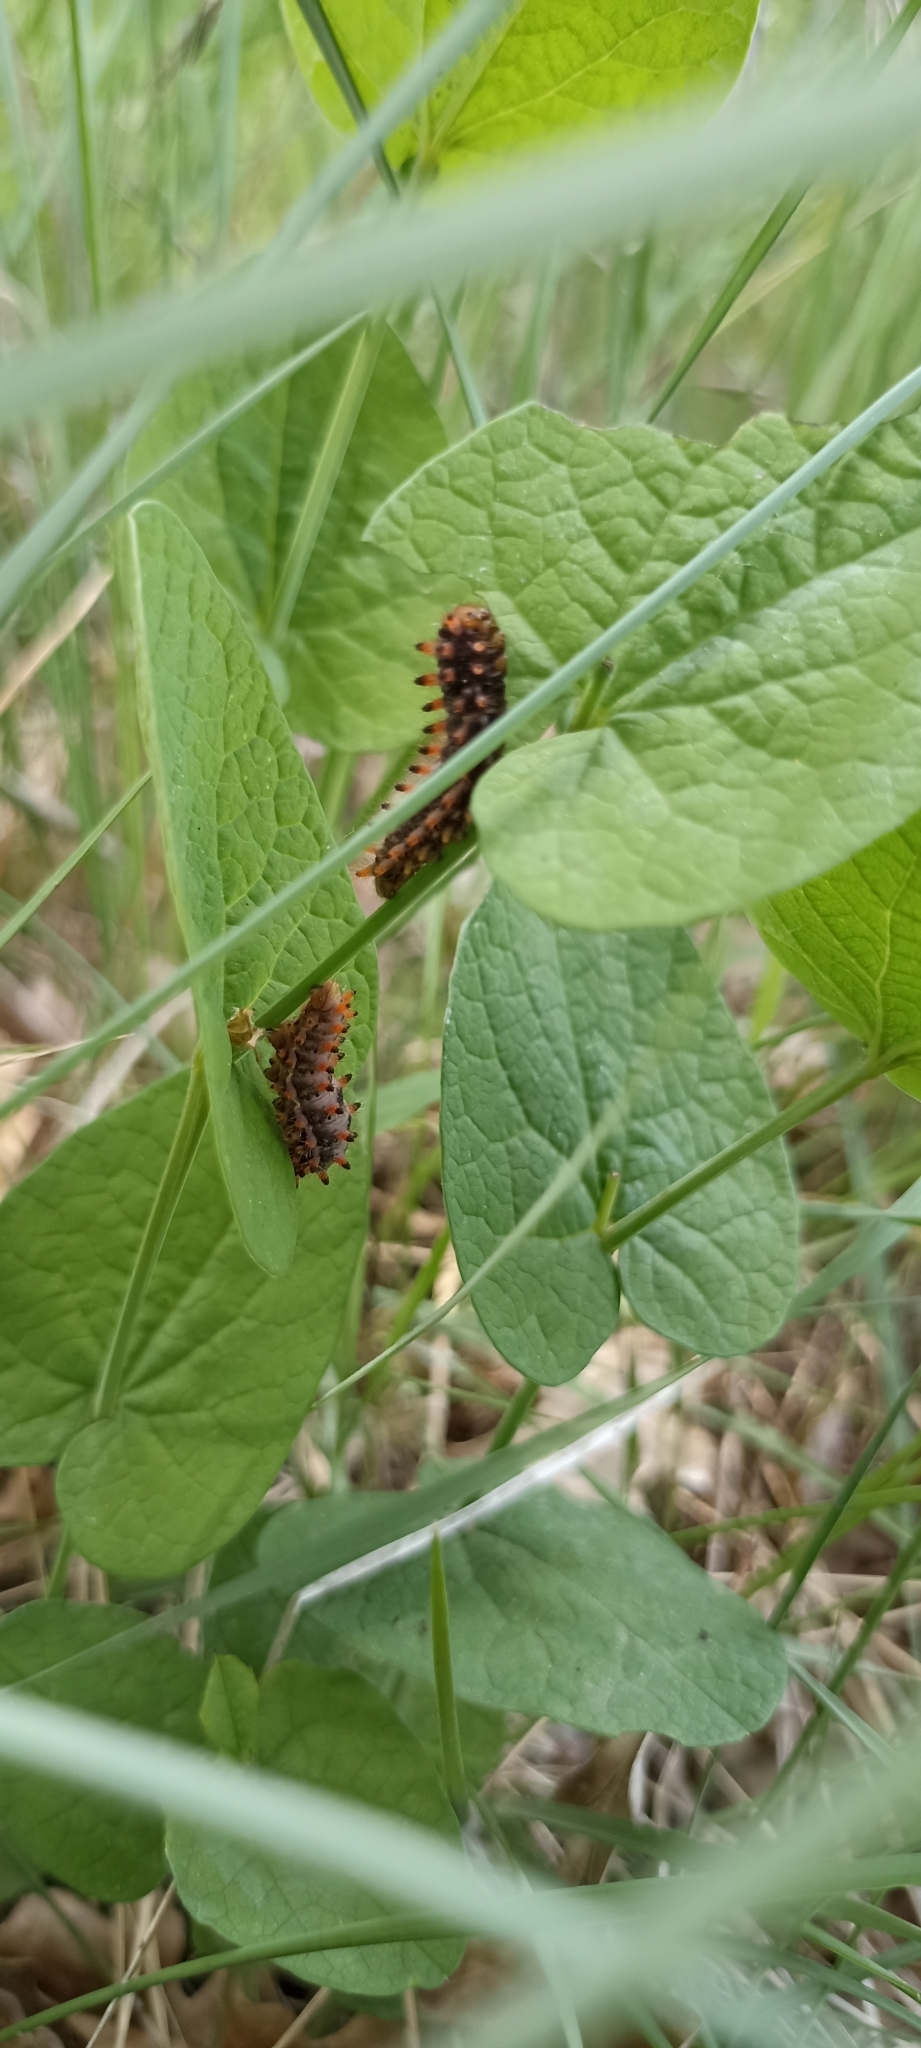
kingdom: Animalia
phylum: Arthropoda
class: Insecta
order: Lepidoptera
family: Papilionidae
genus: Zerynthia
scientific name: Zerynthia polyxena
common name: Southern festoon
